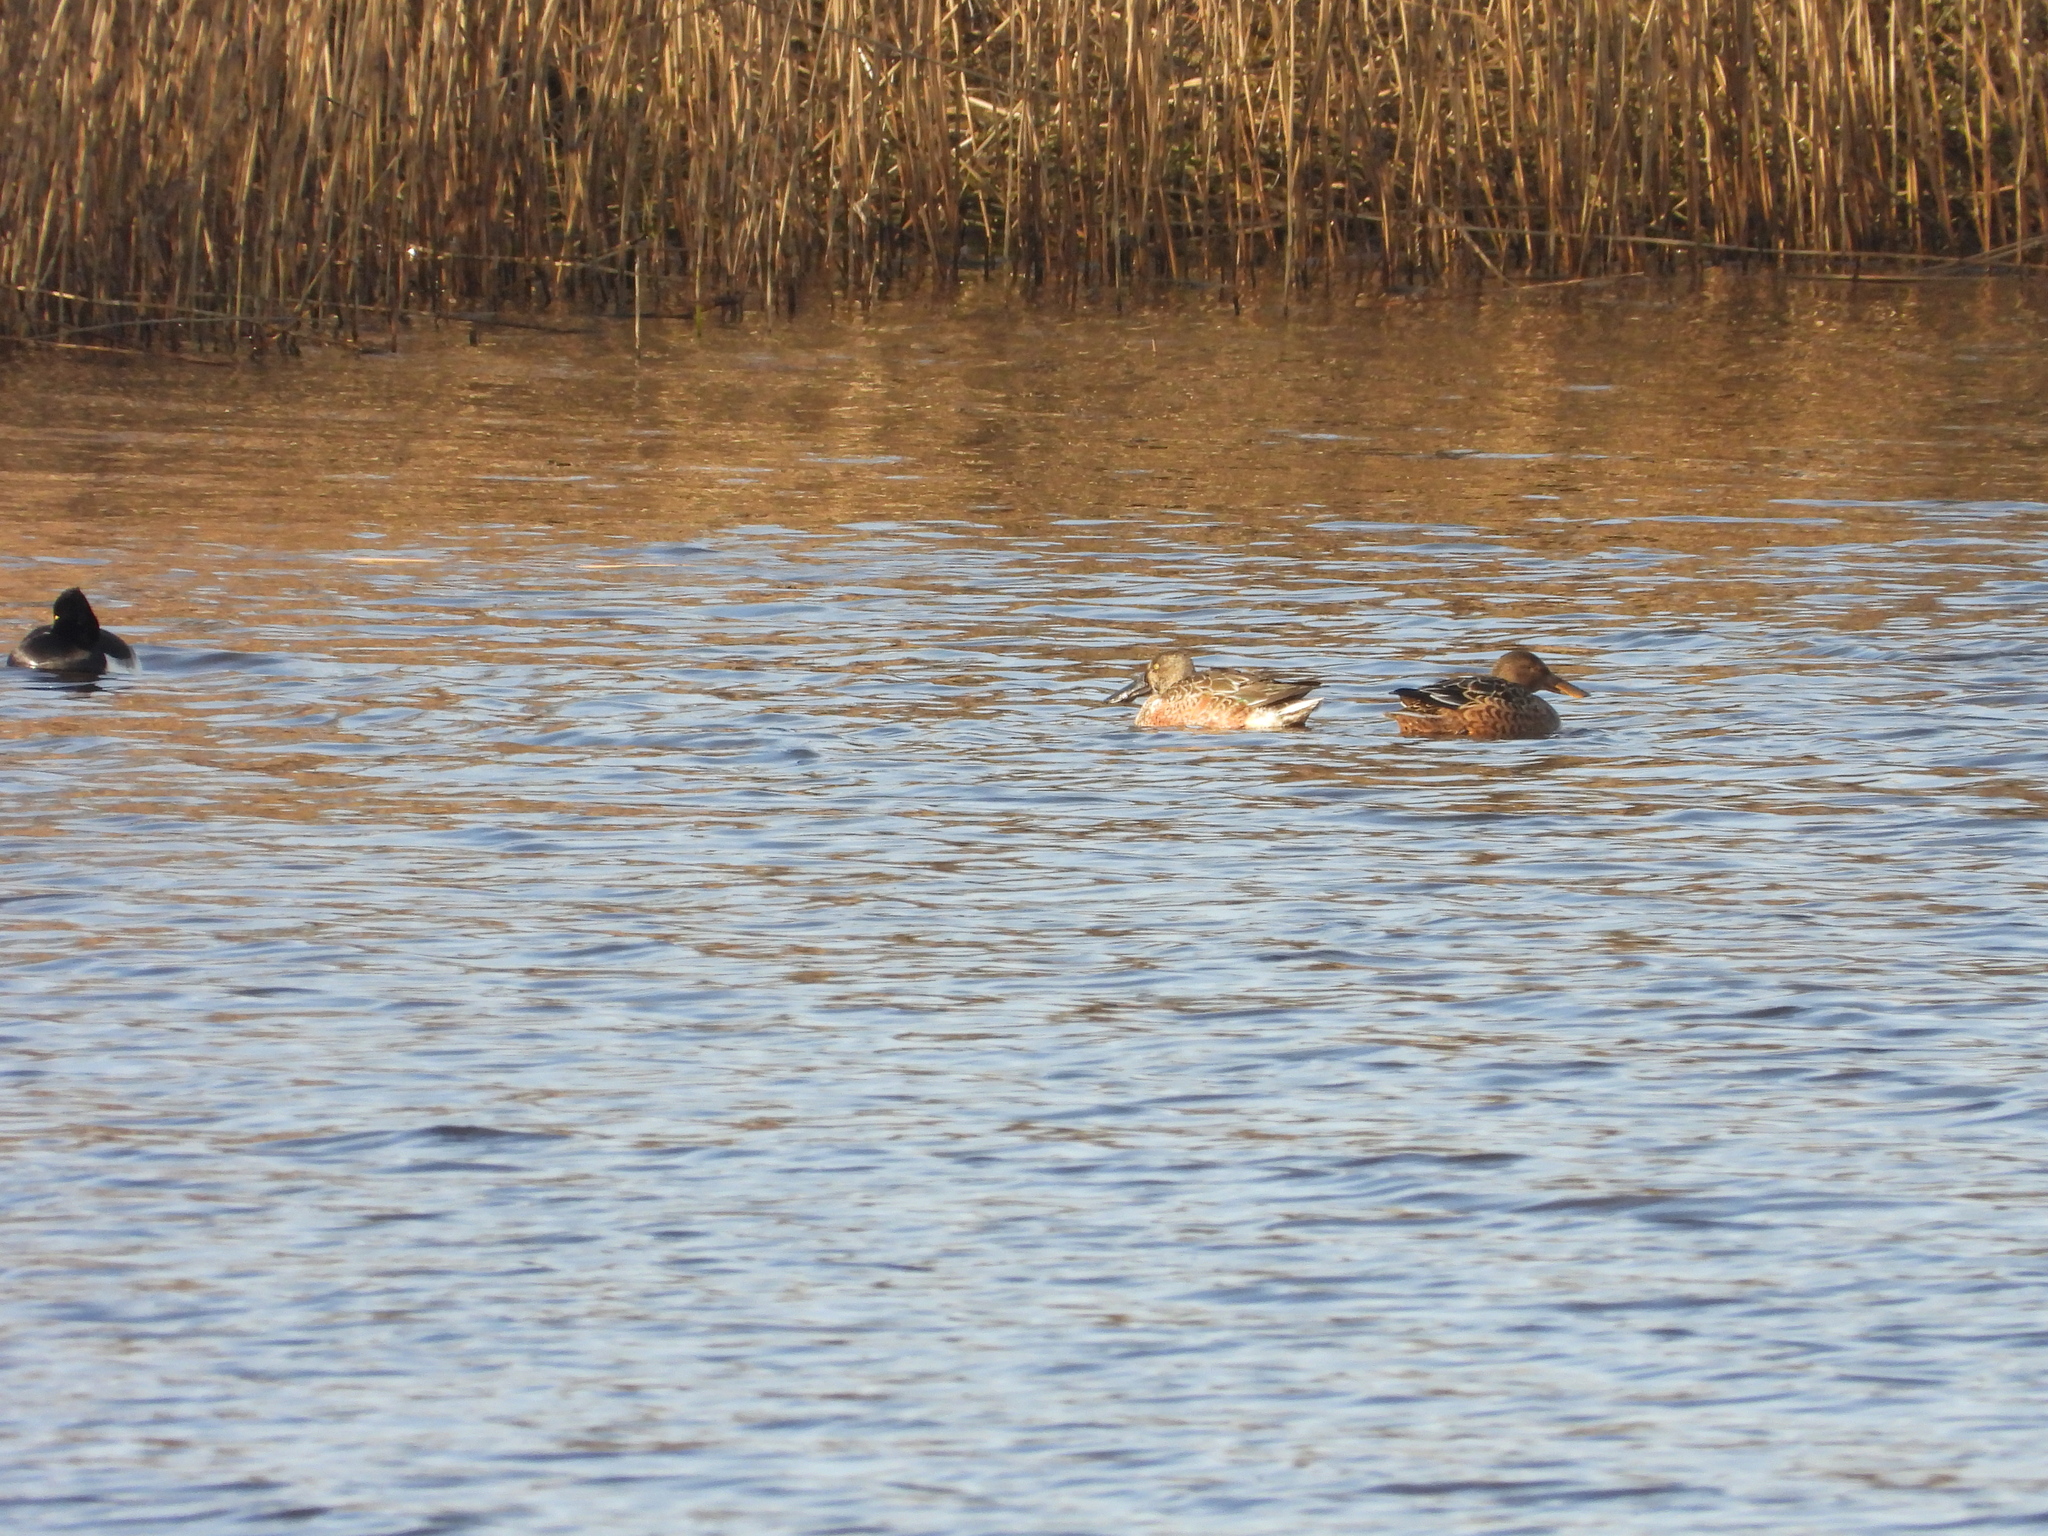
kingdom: Animalia
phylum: Chordata
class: Aves
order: Anseriformes
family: Anatidae
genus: Spatula
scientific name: Spatula clypeata
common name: Northern shoveler
